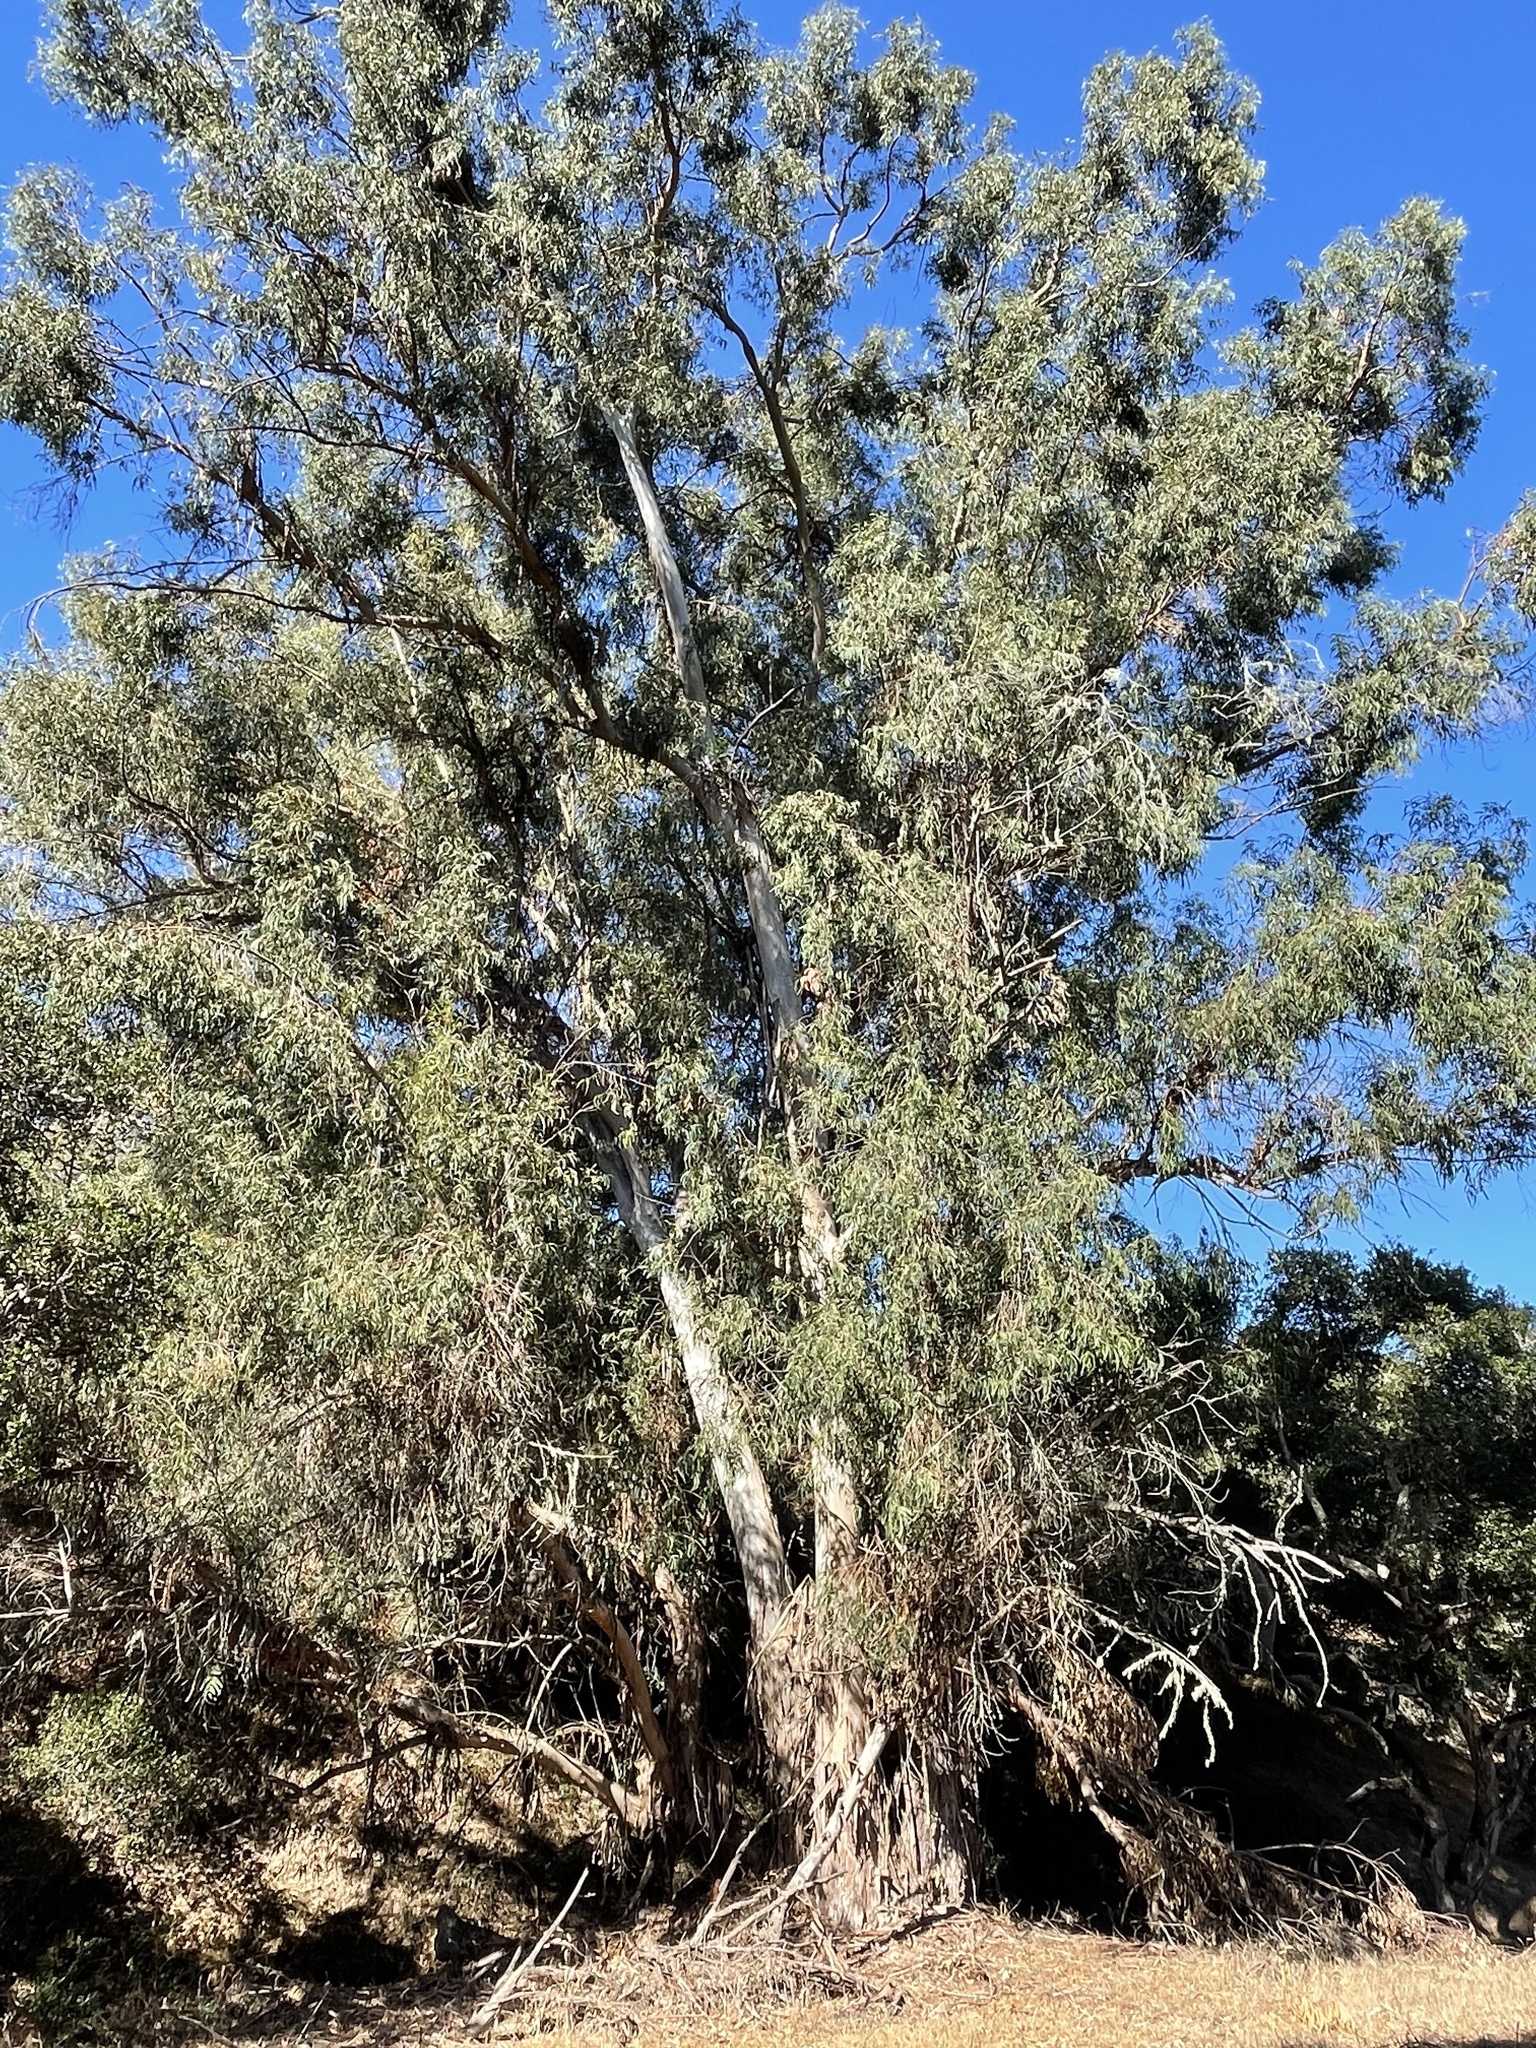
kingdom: Animalia
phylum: Chordata
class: Aves
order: Galliformes
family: Phasianidae
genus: Meleagris
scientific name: Meleagris gallopavo
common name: Wild turkey
